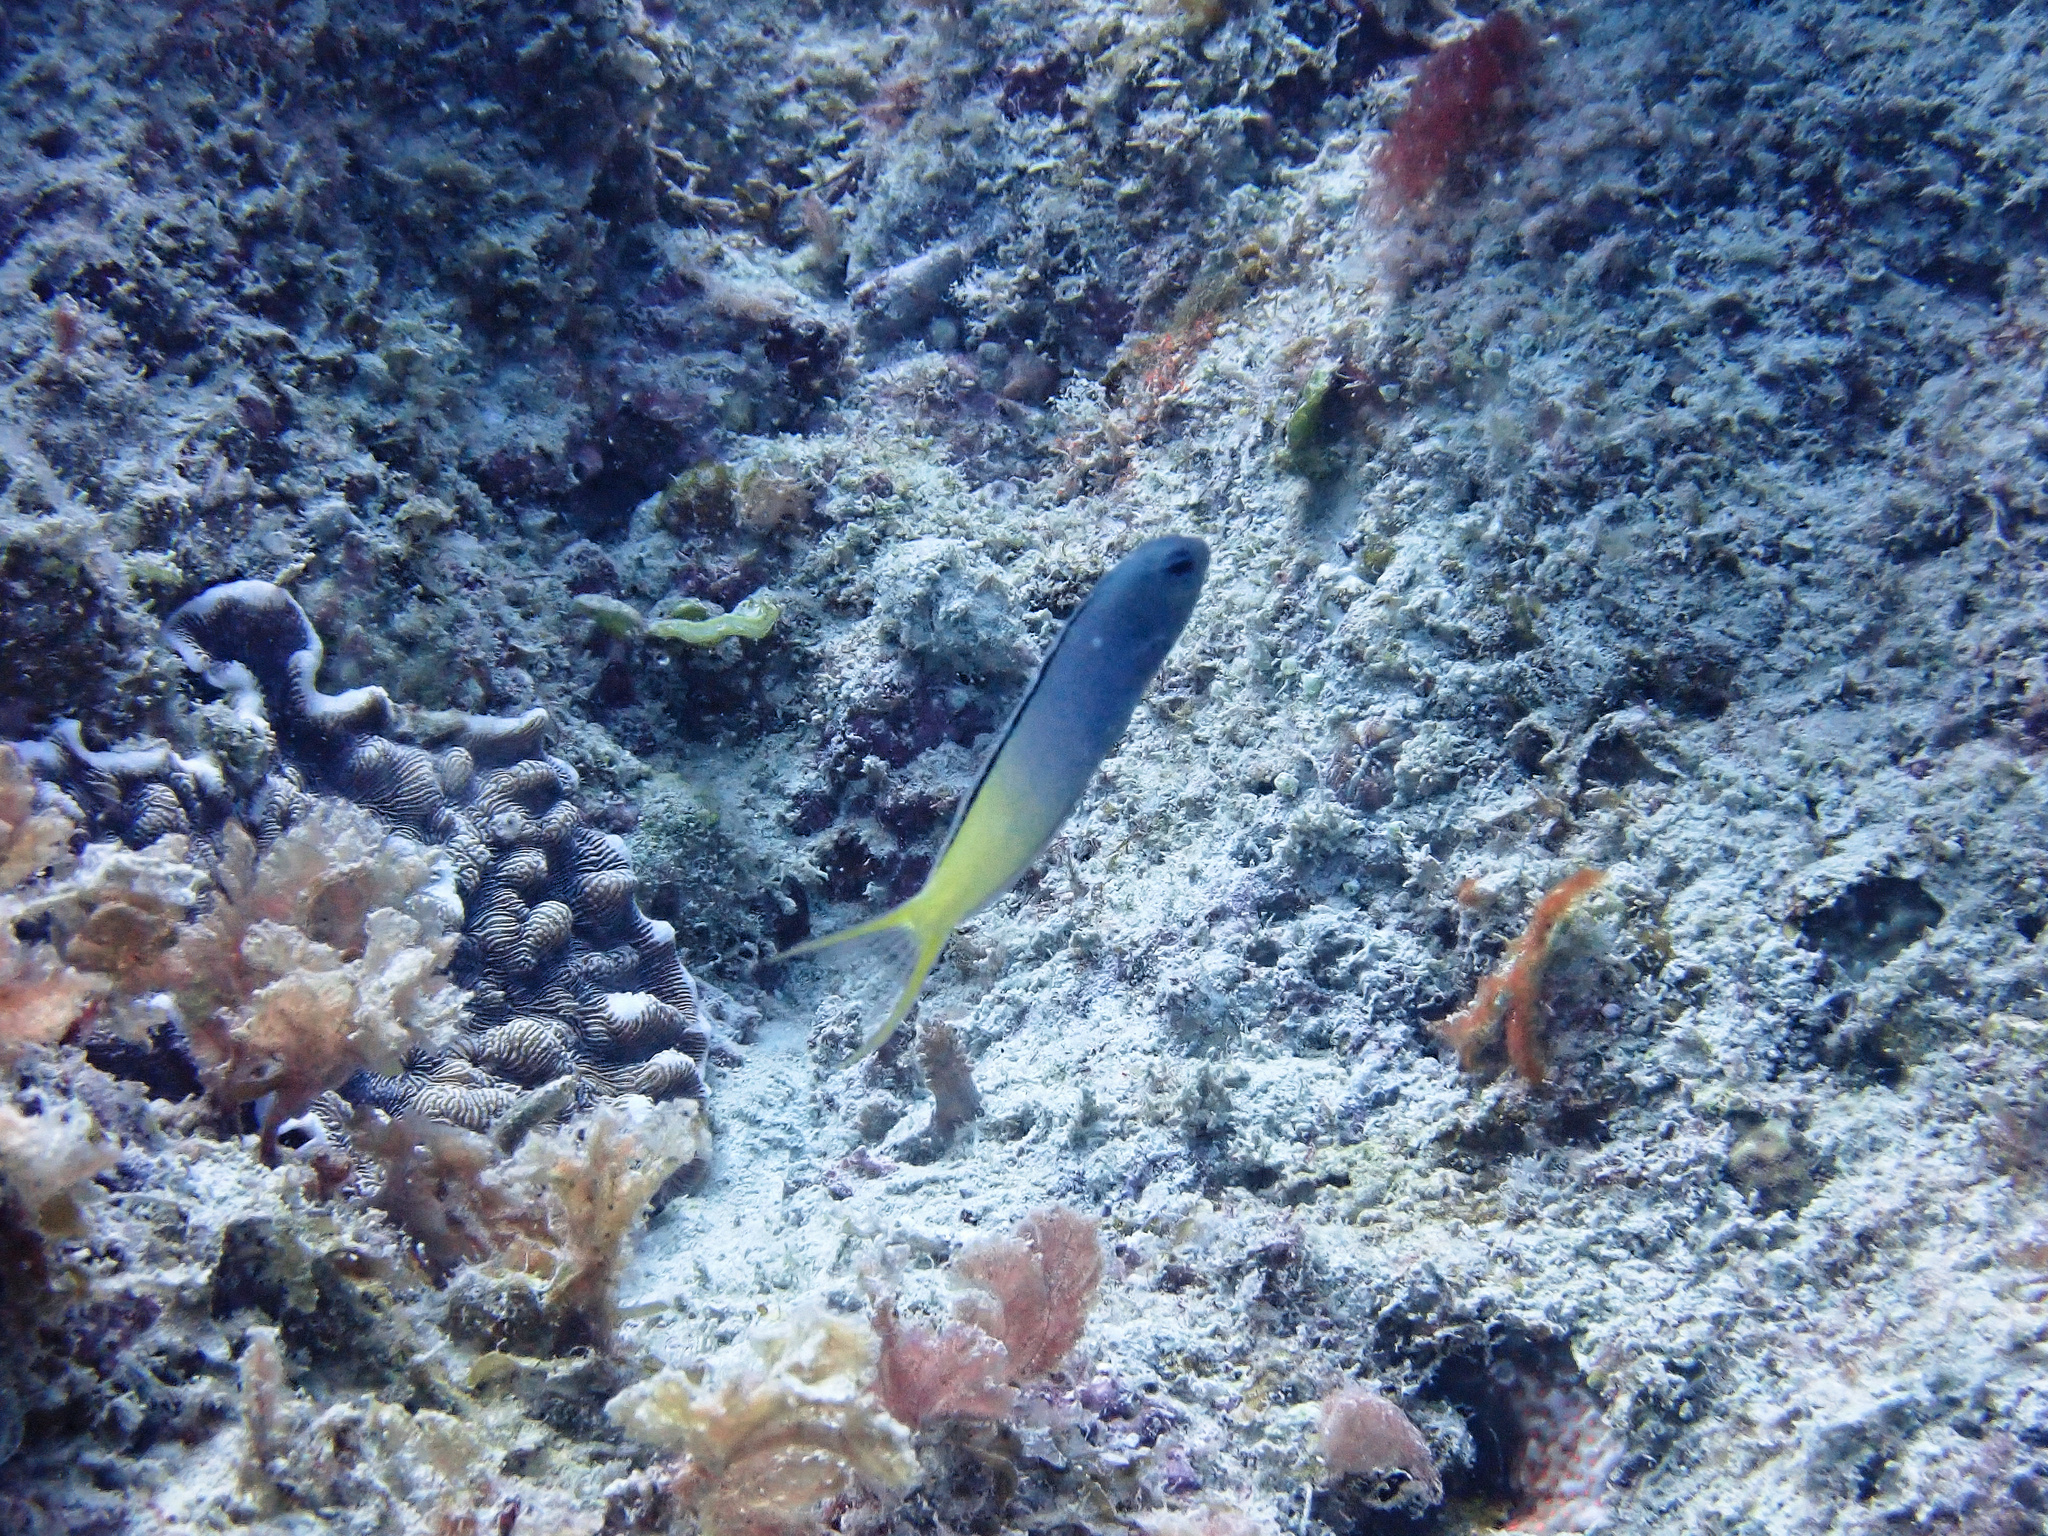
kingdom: Animalia
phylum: Chordata
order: Perciformes
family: Blenniidae
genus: Plagiotremus
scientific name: Plagiotremus laudandus
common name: Bicolour fangblenny
